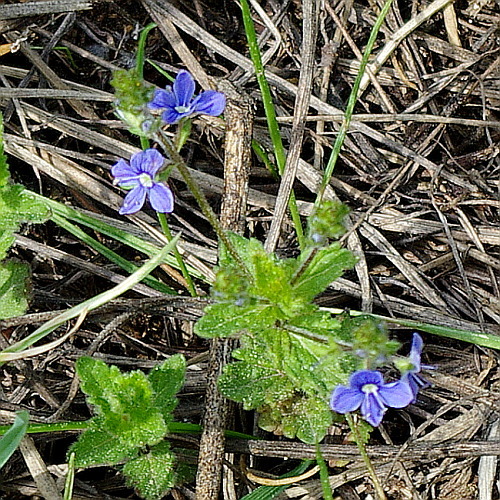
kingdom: Plantae
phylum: Tracheophyta
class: Magnoliopsida
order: Lamiales
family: Plantaginaceae
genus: Veronica
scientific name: Veronica chamaedrys
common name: Germander speedwell
